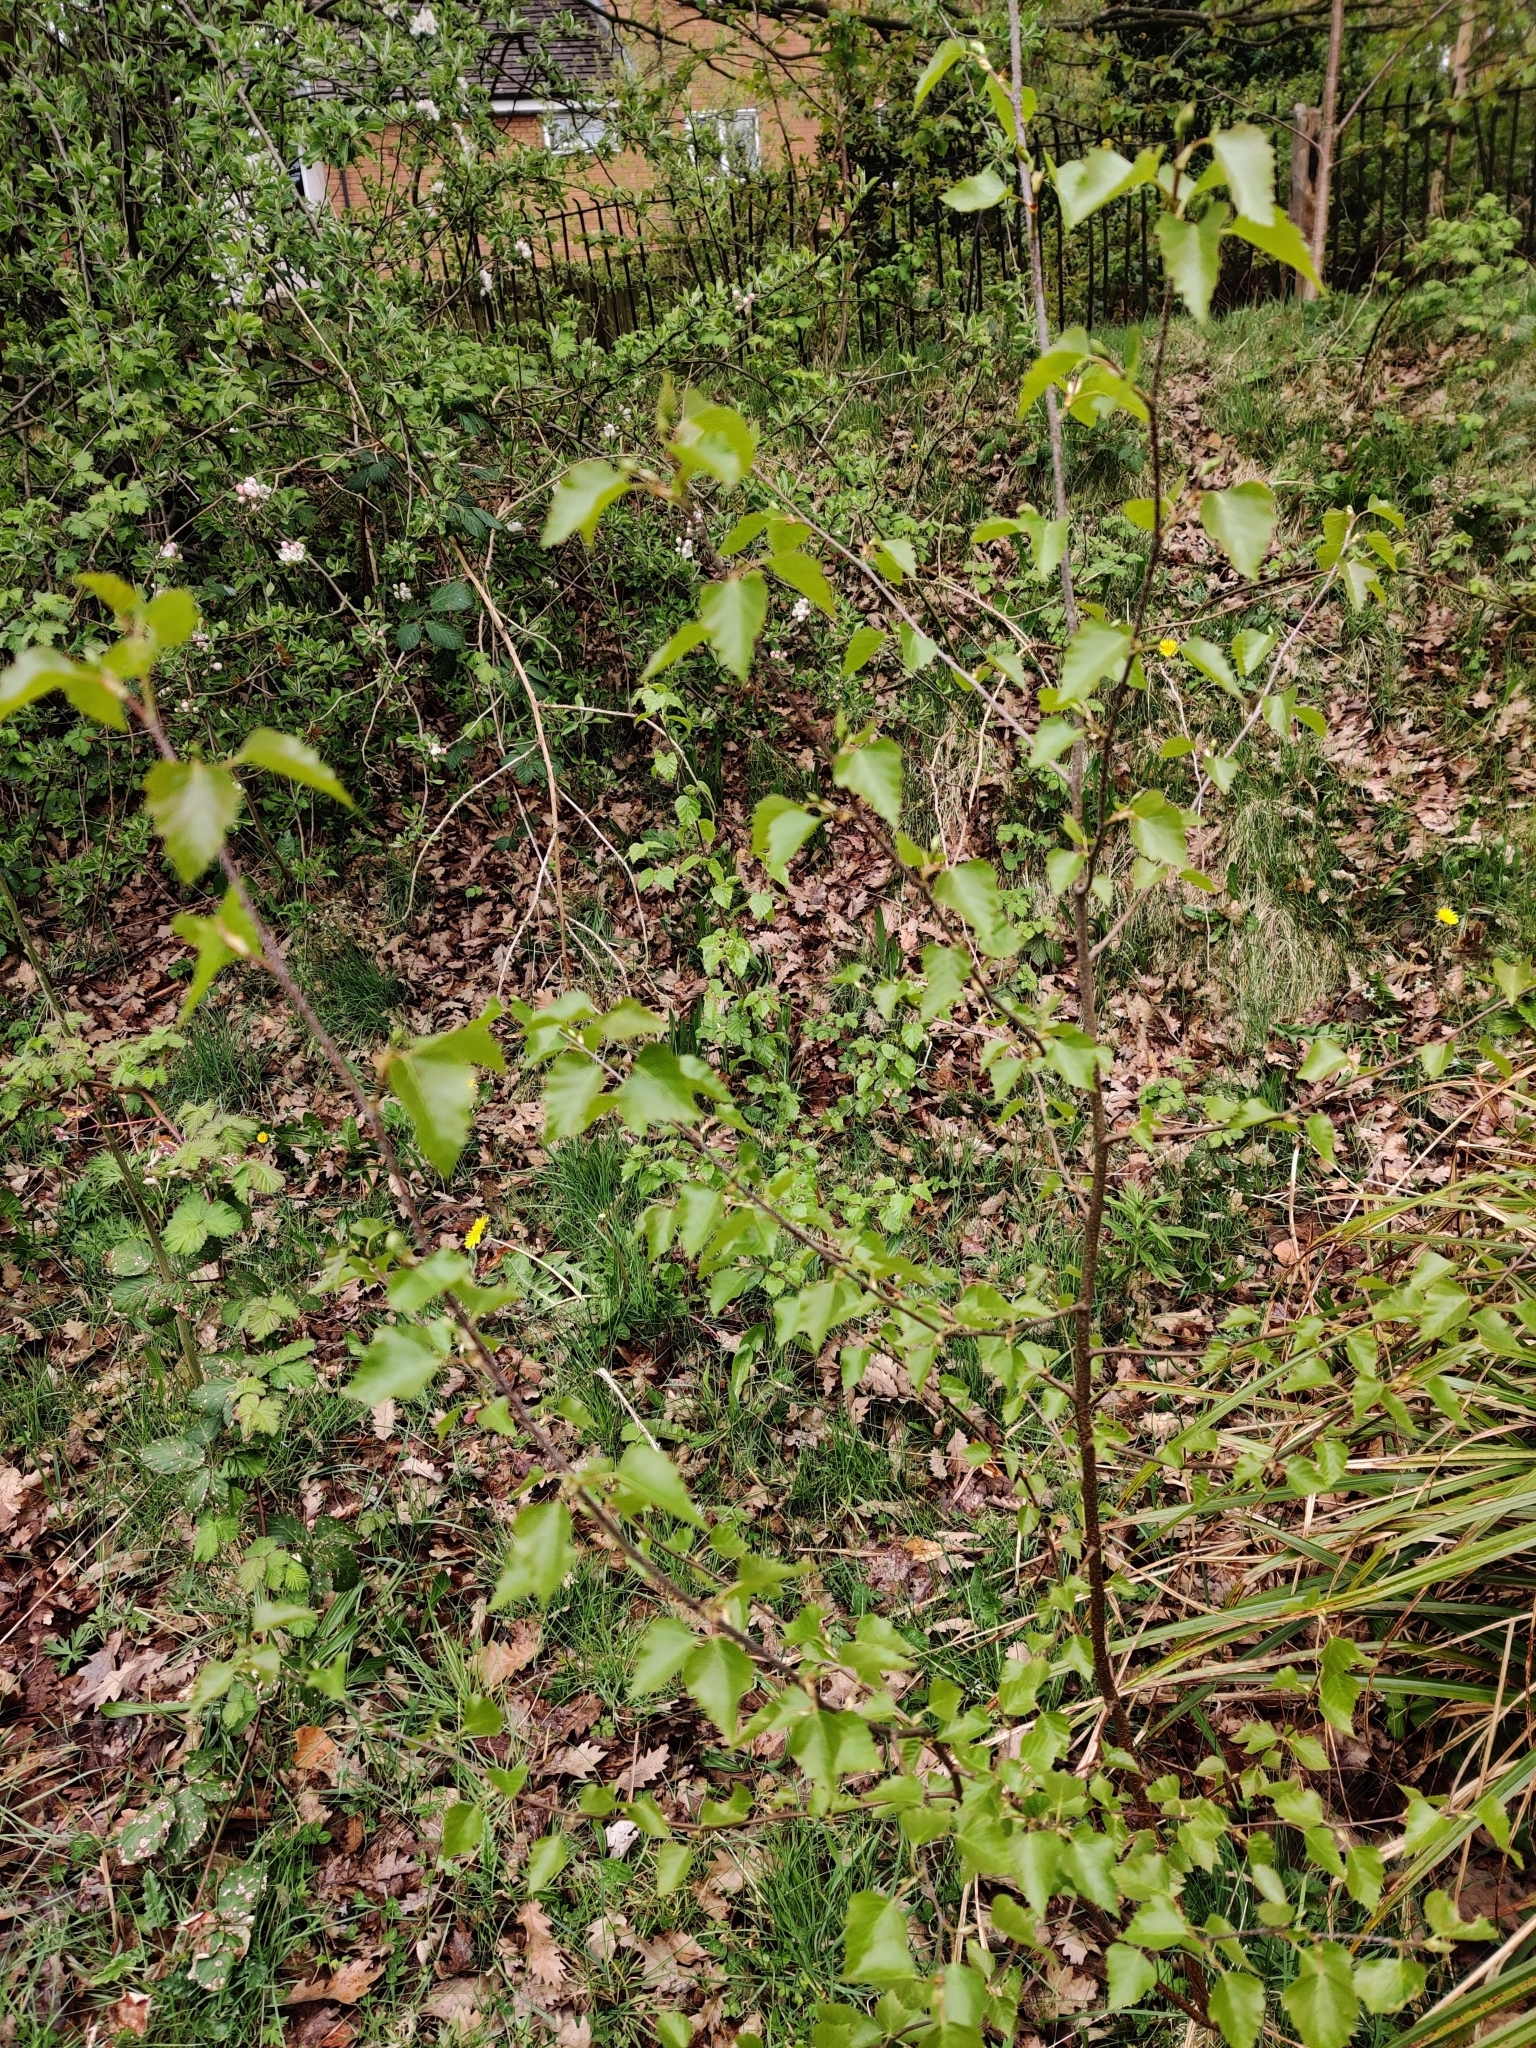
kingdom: Plantae
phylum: Tracheophyta
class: Magnoliopsida
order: Fagales
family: Betulaceae
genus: Betula
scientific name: Betula pendula
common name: Silver birch
